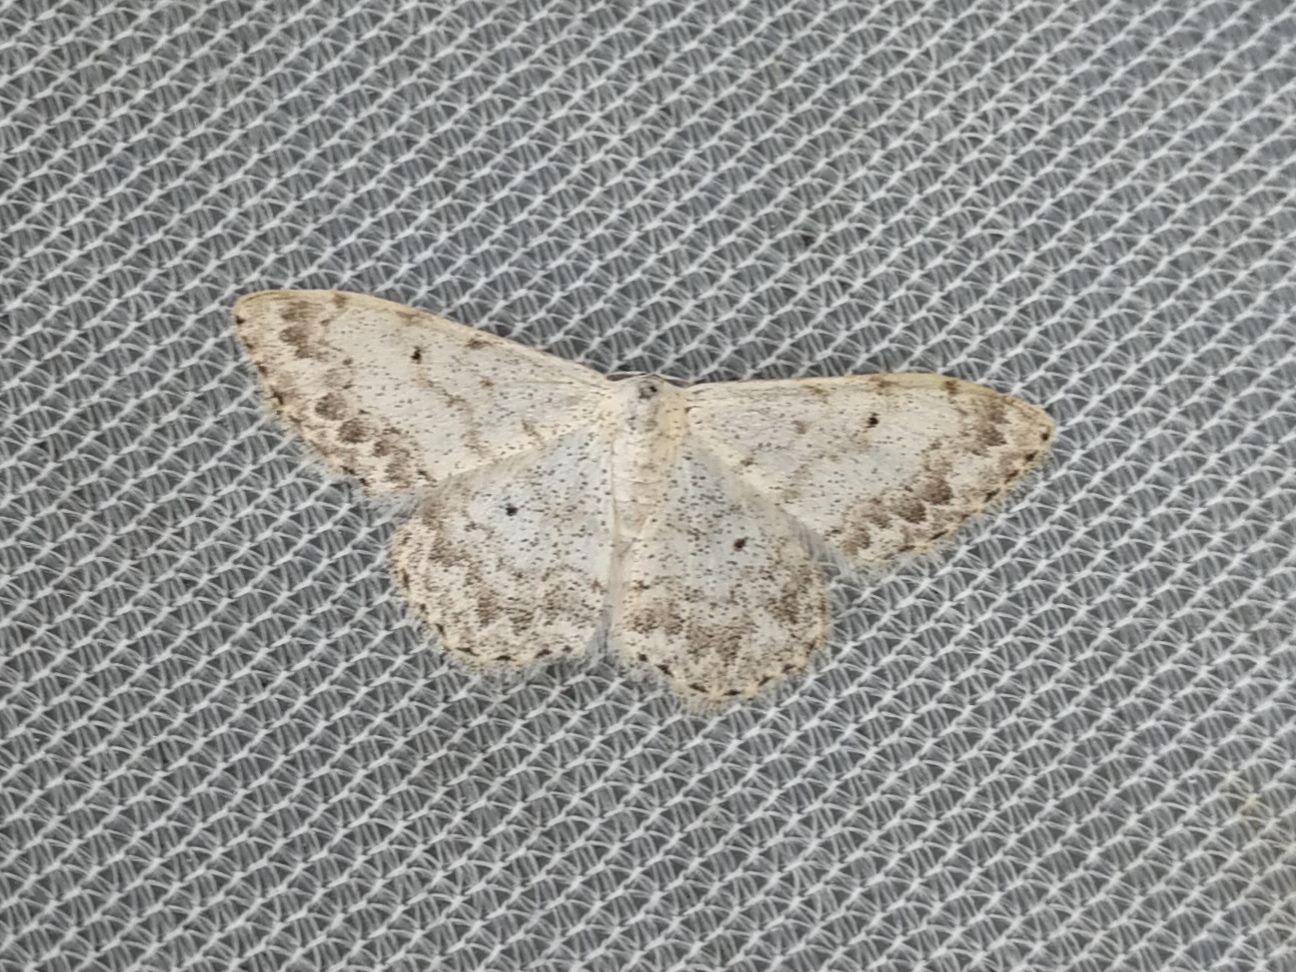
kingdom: Animalia
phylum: Arthropoda
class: Insecta
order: Lepidoptera
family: Geometridae
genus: Scopula
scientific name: Scopula marginepunctata
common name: Mullein wave
